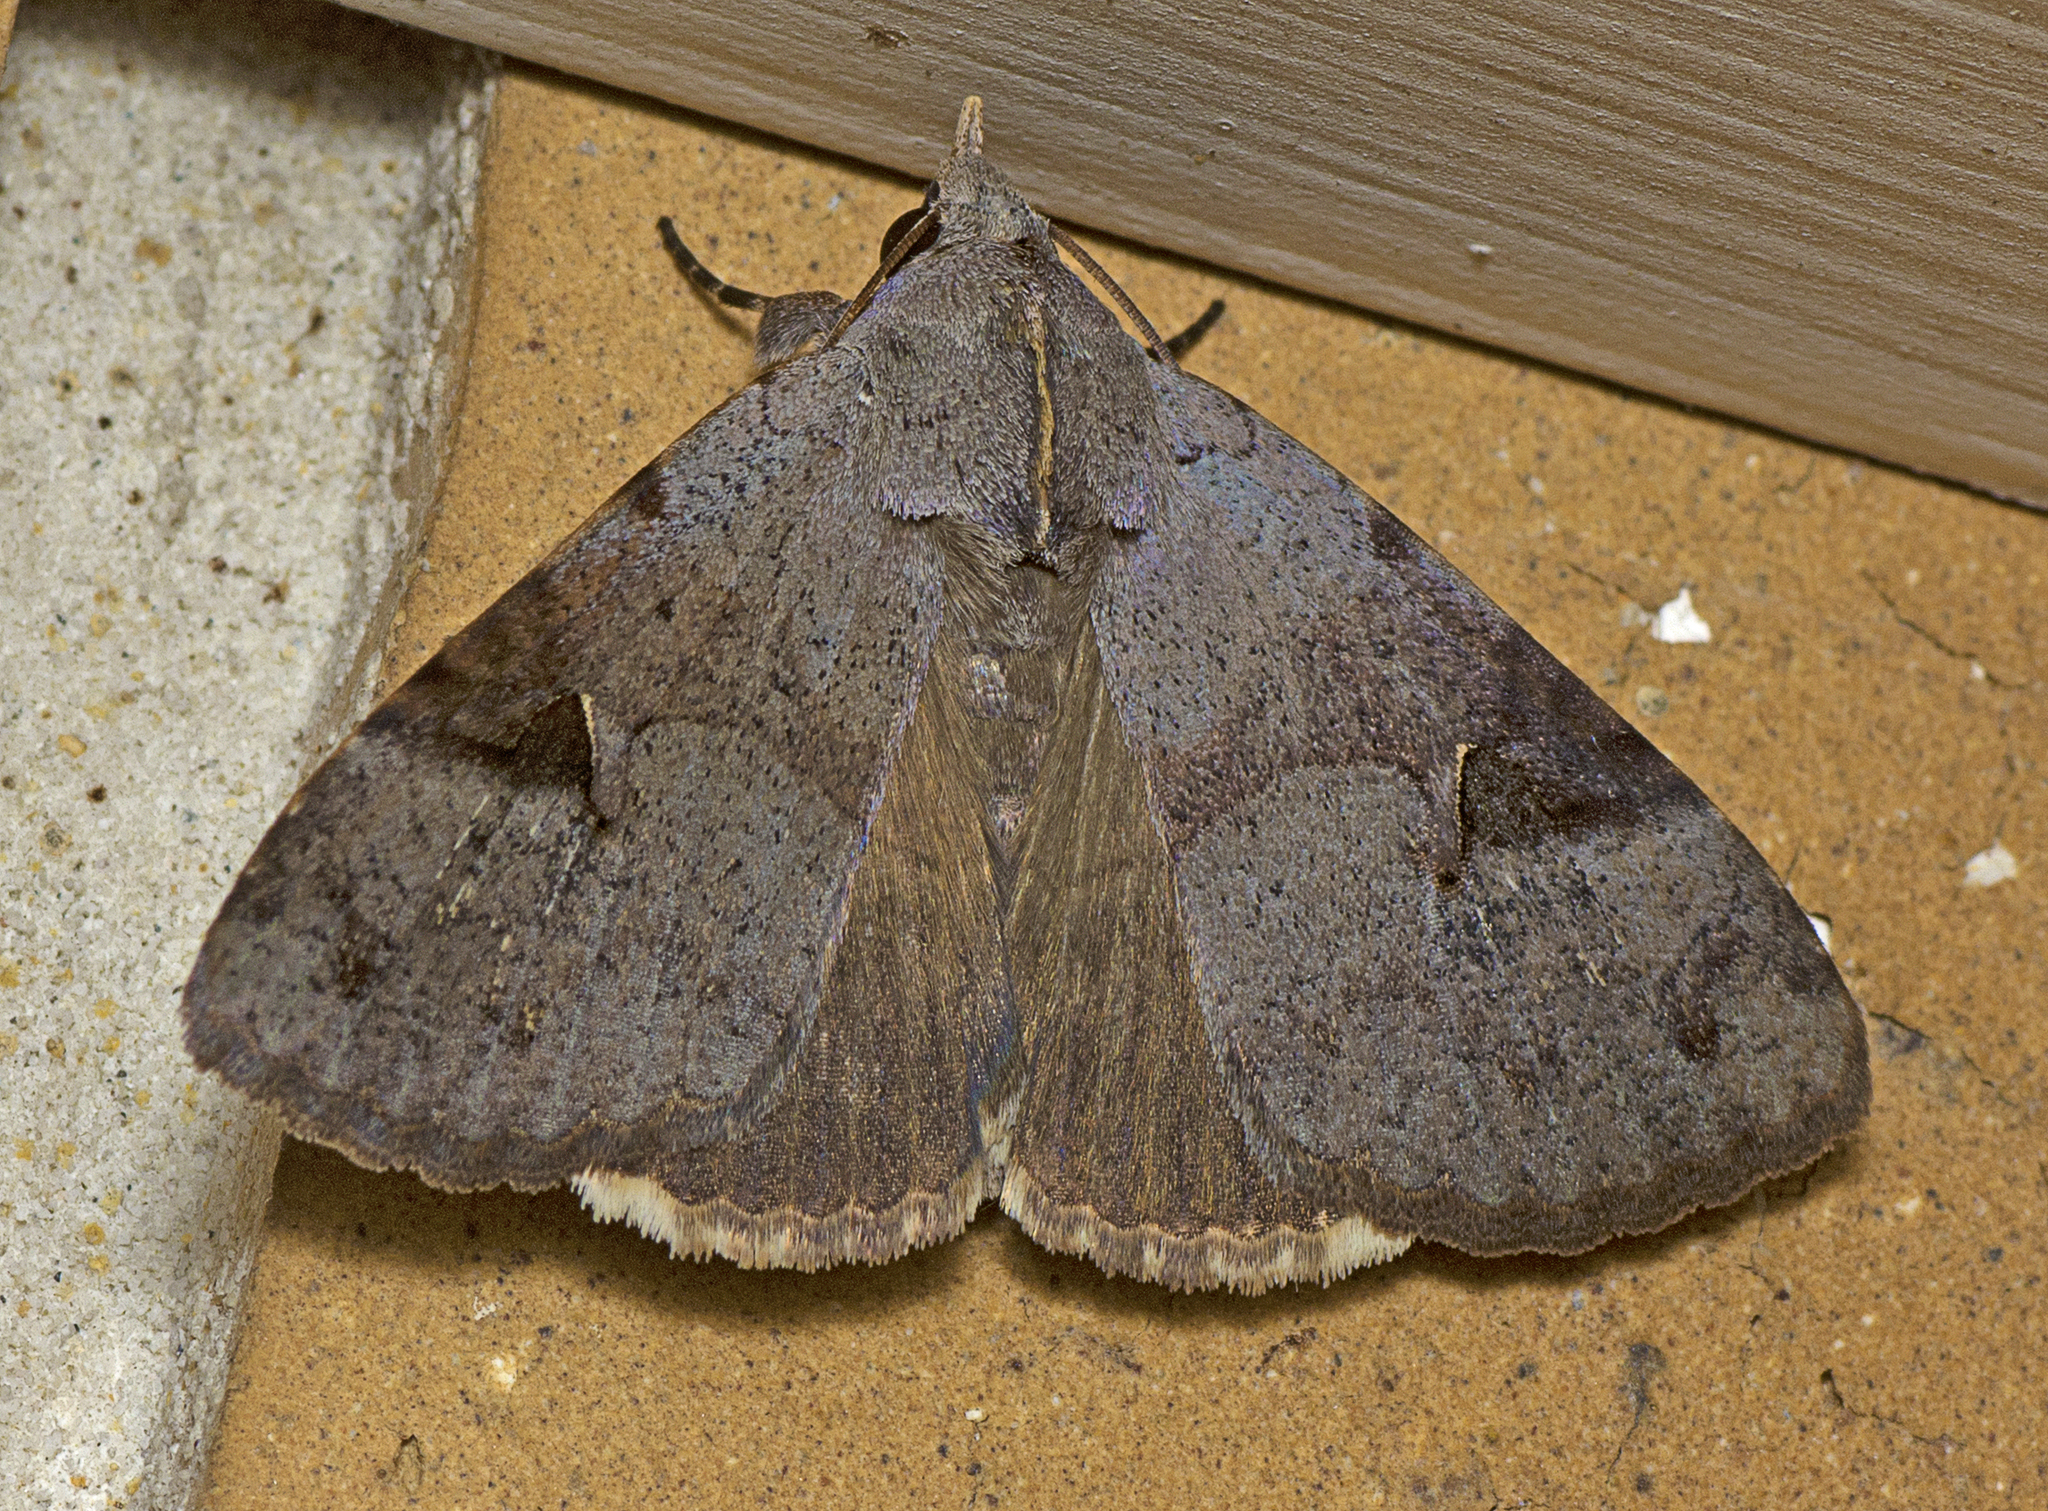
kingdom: Animalia
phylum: Arthropoda
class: Insecta
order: Lepidoptera
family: Erebidae
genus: Avatha
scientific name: Avatha discolor
